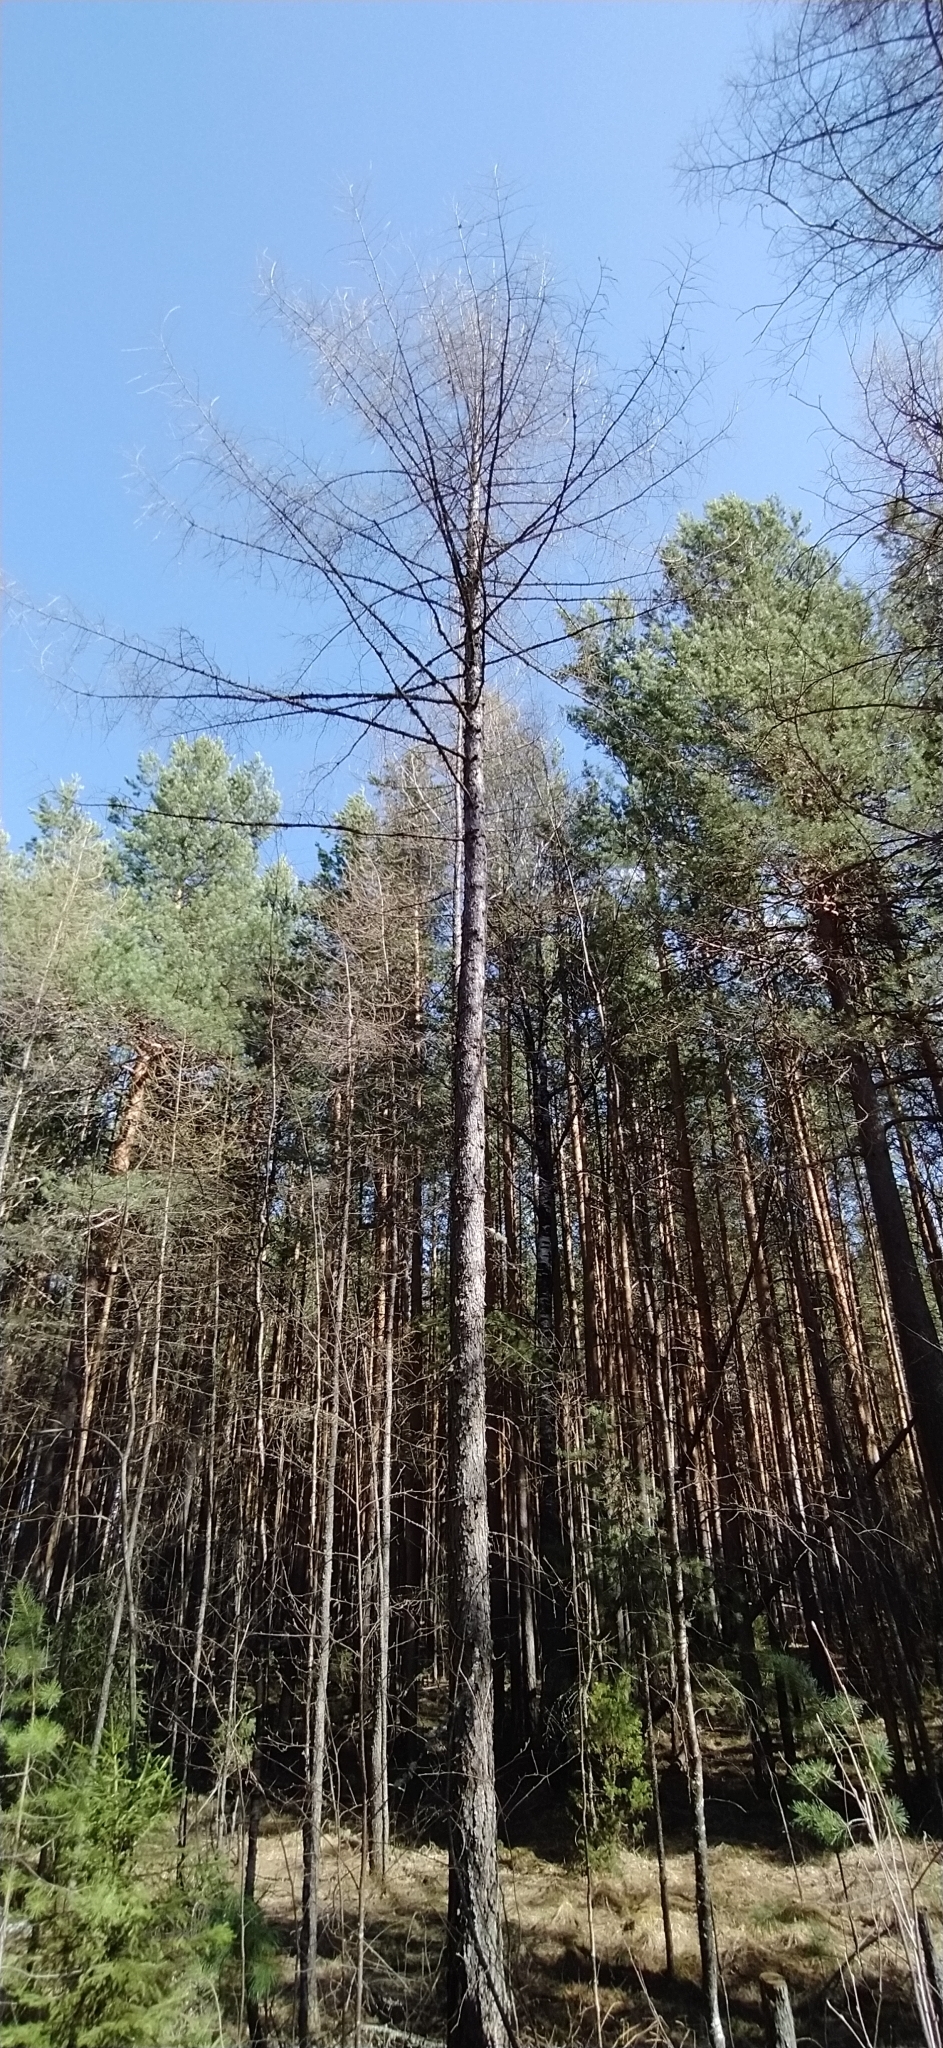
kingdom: Plantae
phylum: Tracheophyta
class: Pinopsida
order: Pinales
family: Pinaceae
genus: Larix
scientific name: Larix sibirica
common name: Siberian larch
